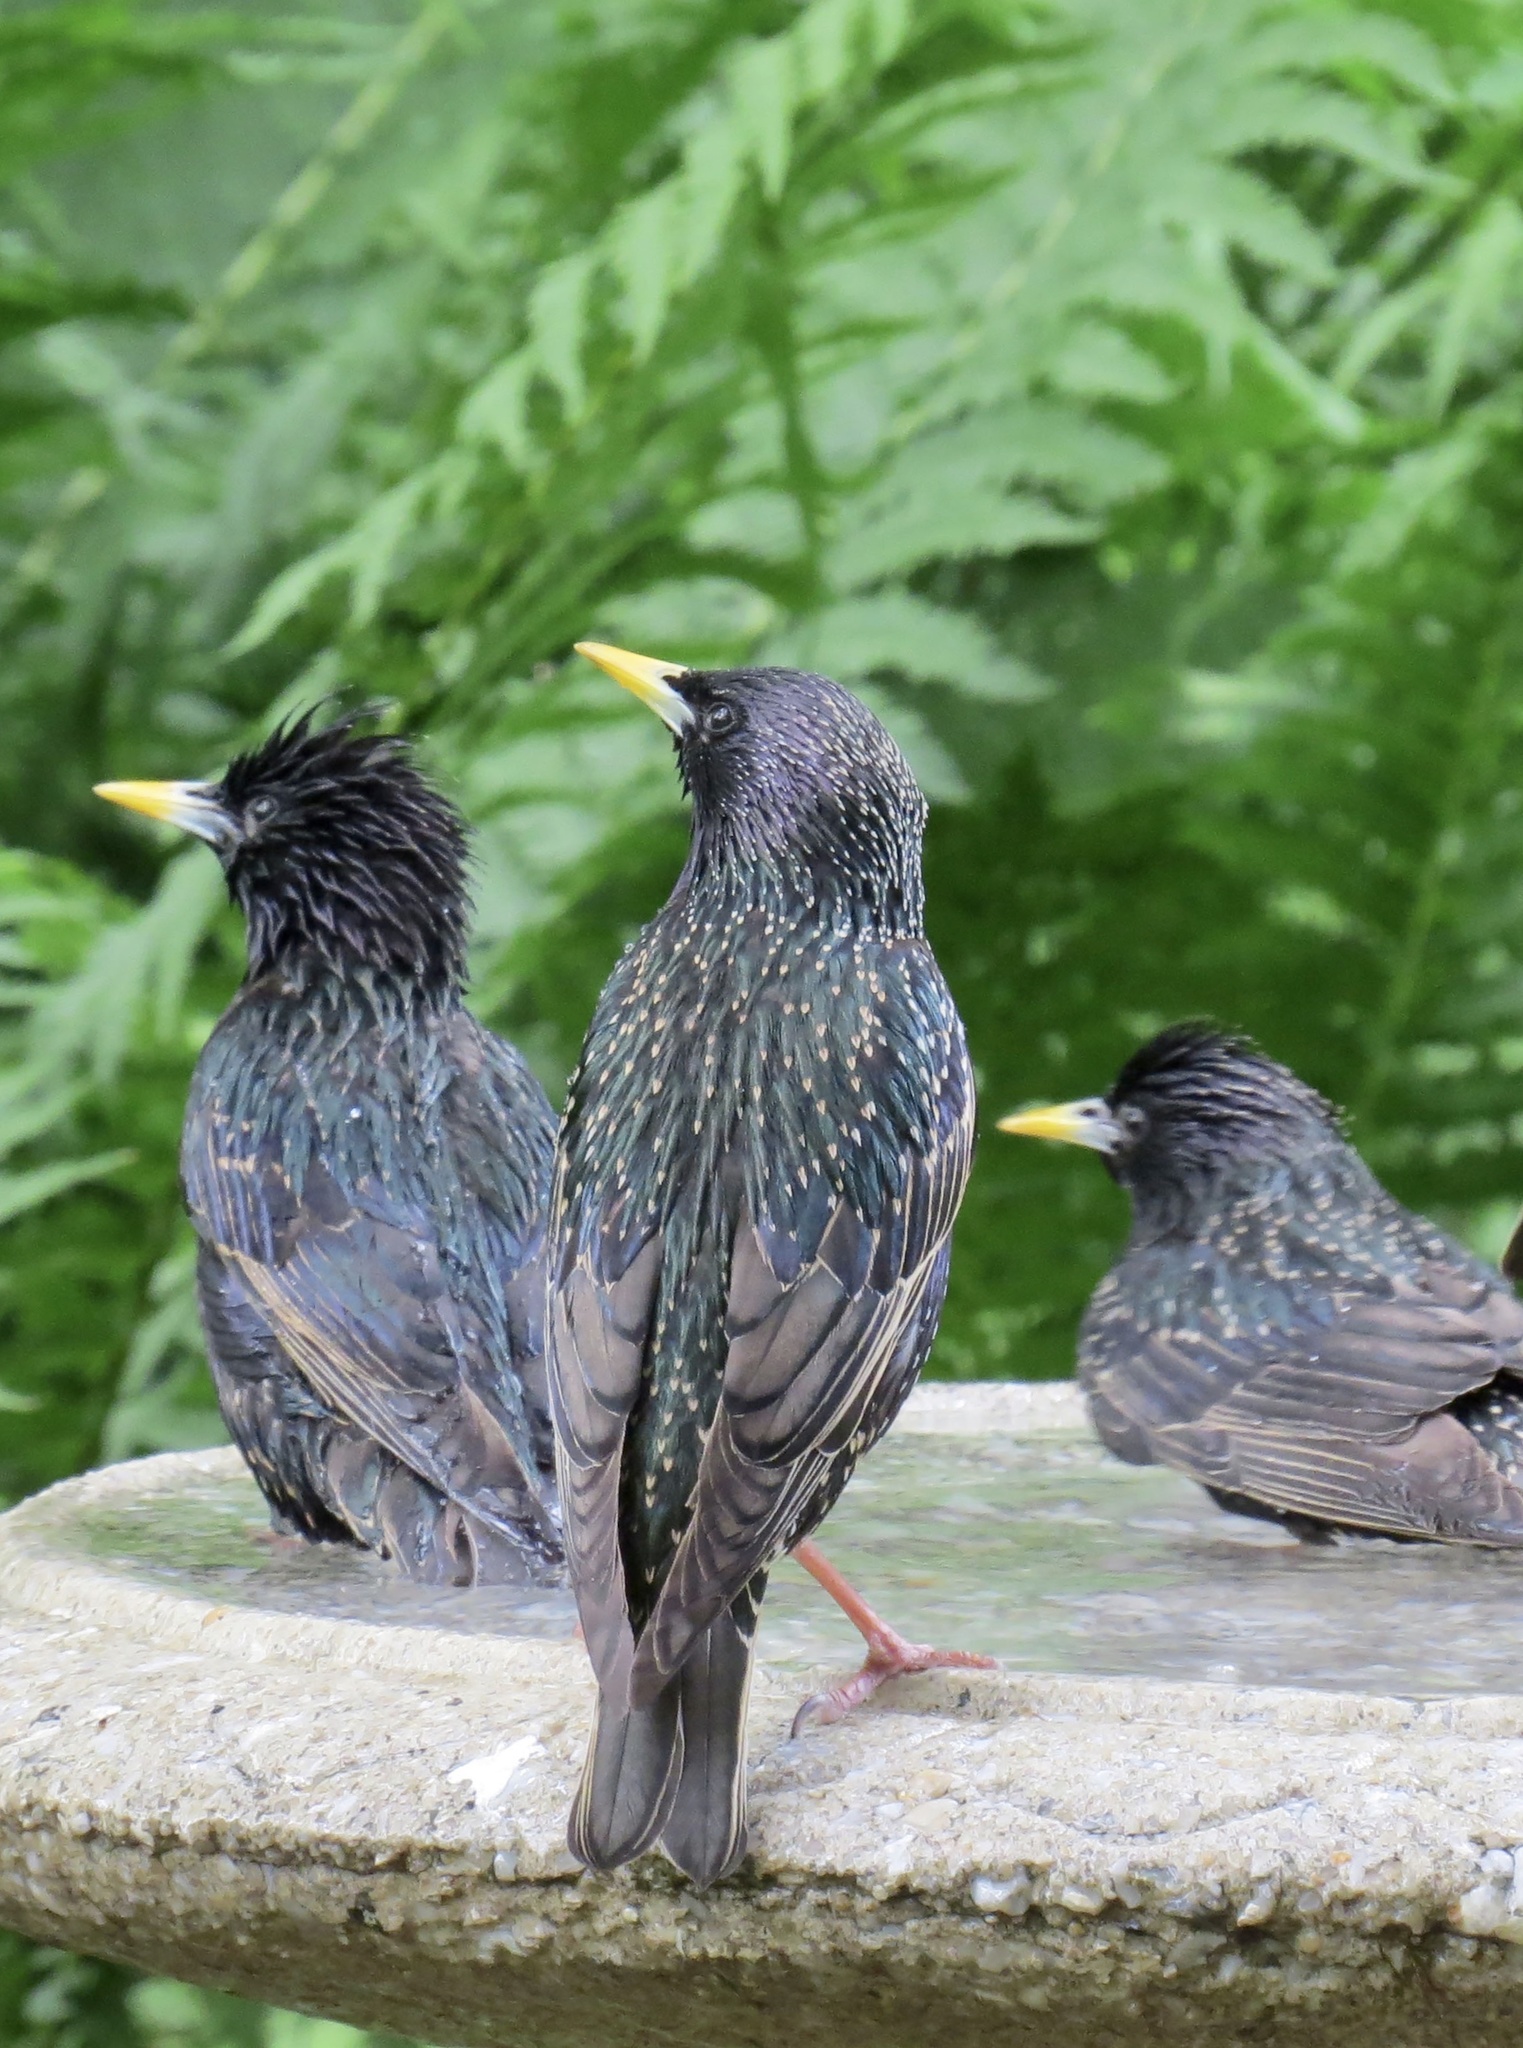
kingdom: Animalia
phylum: Chordata
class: Aves
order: Passeriformes
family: Sturnidae
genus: Sturnus
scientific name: Sturnus vulgaris
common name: Common starling
